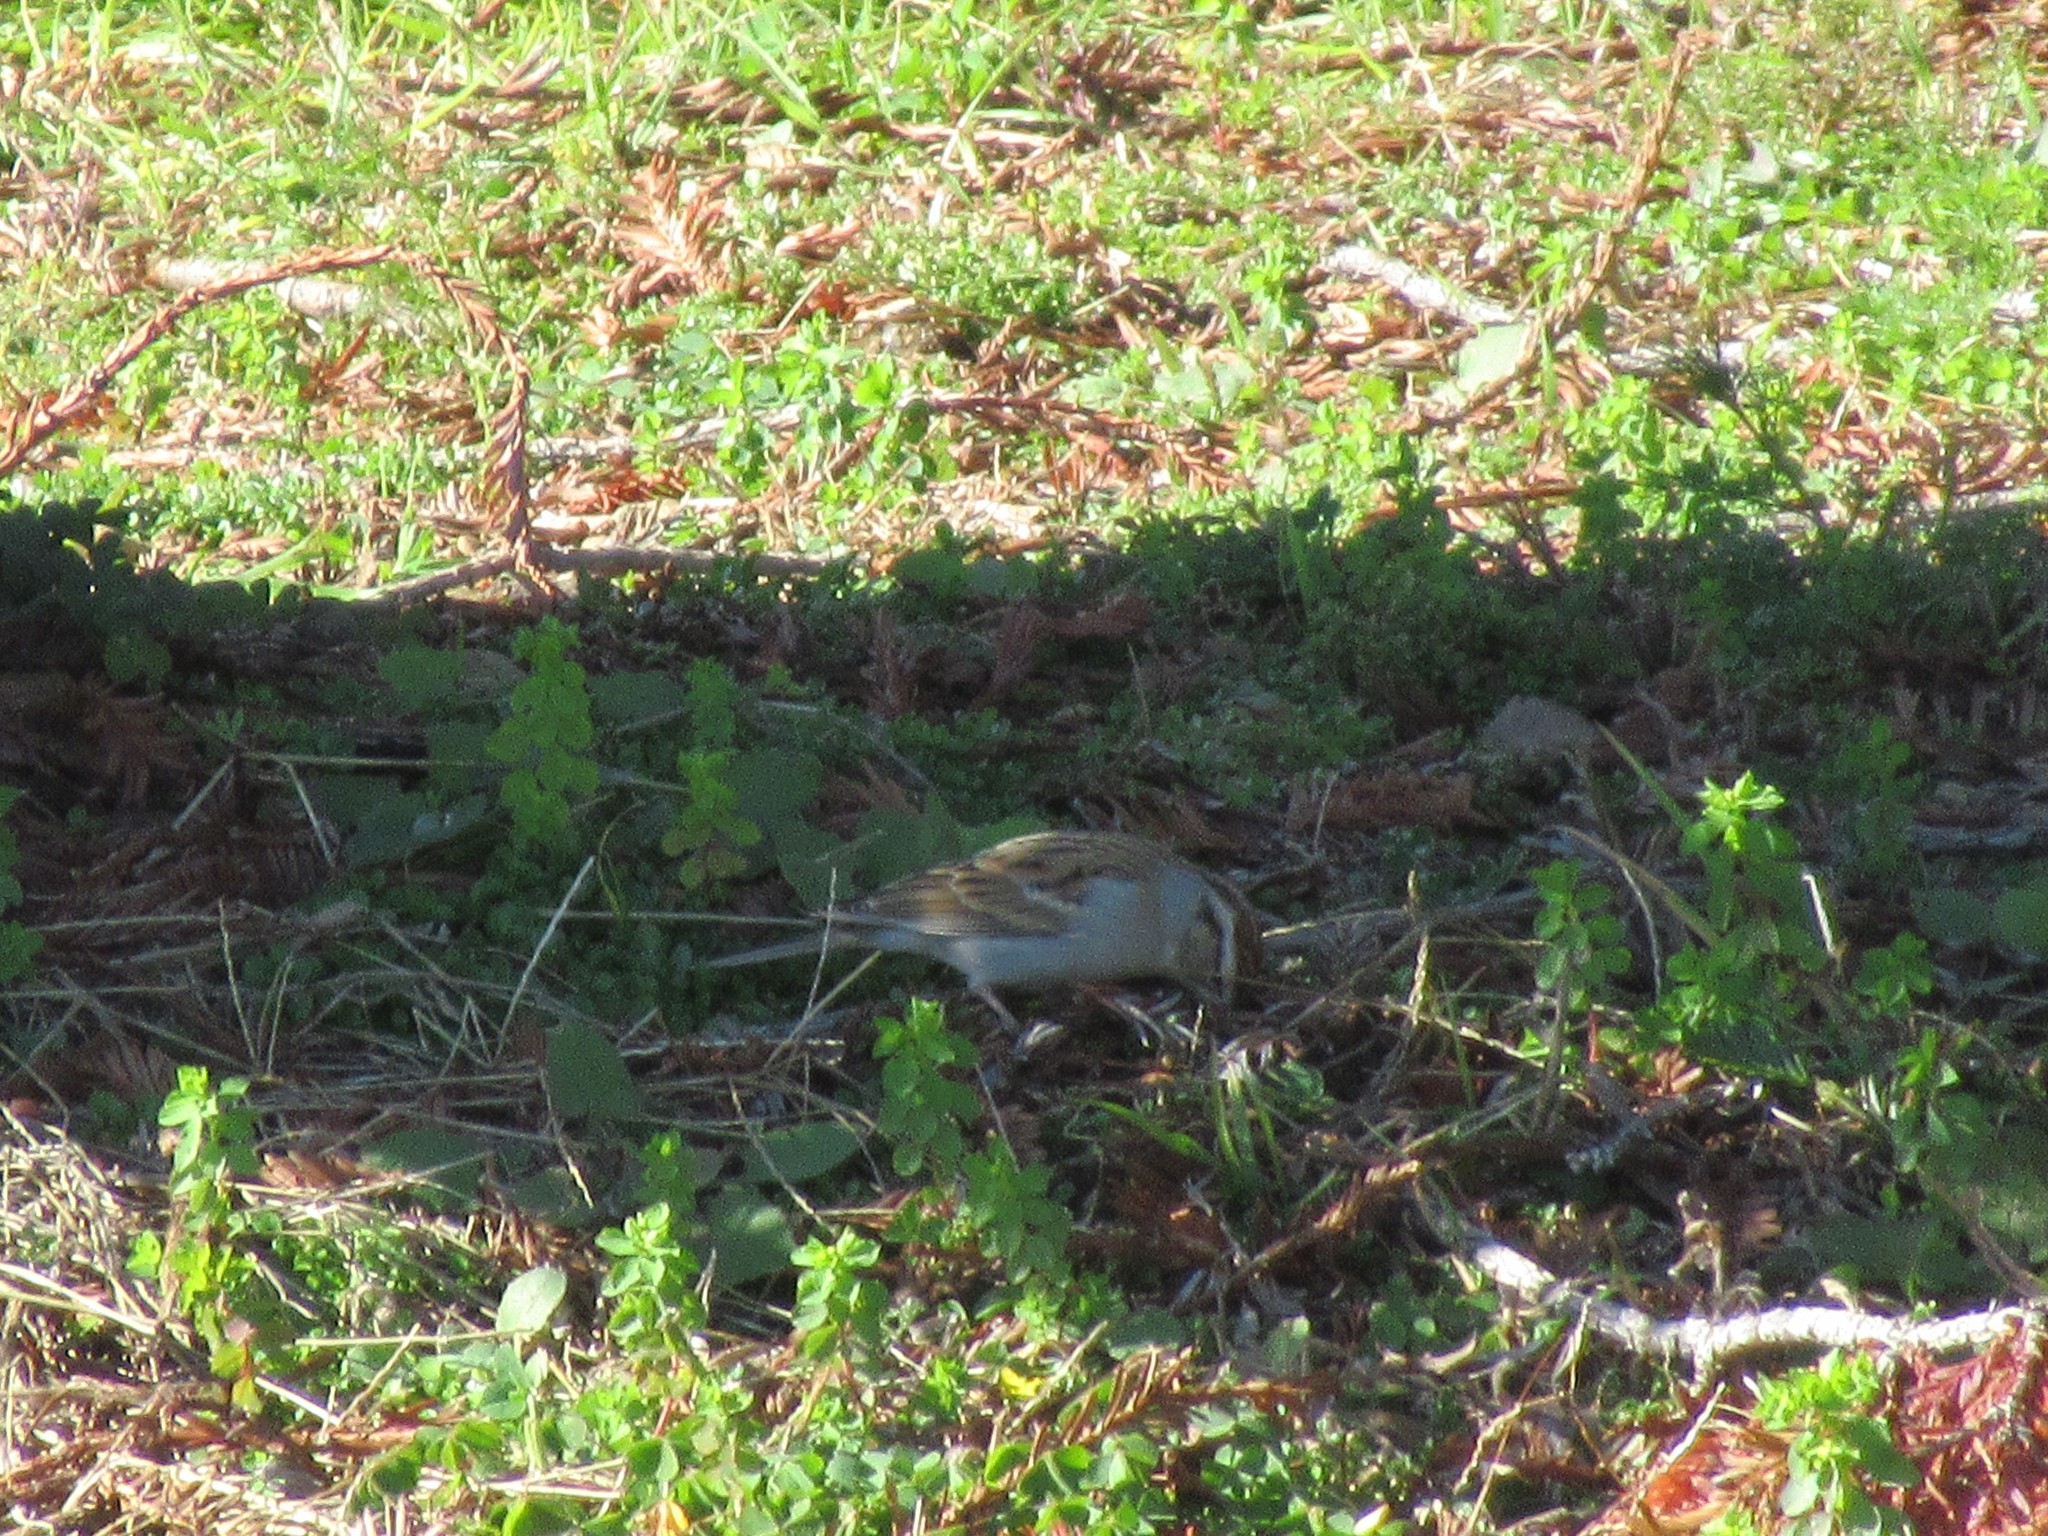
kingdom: Animalia
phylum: Chordata
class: Aves
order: Passeriformes
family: Passerellidae
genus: Spizella
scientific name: Spizella passerina
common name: Chipping sparrow
